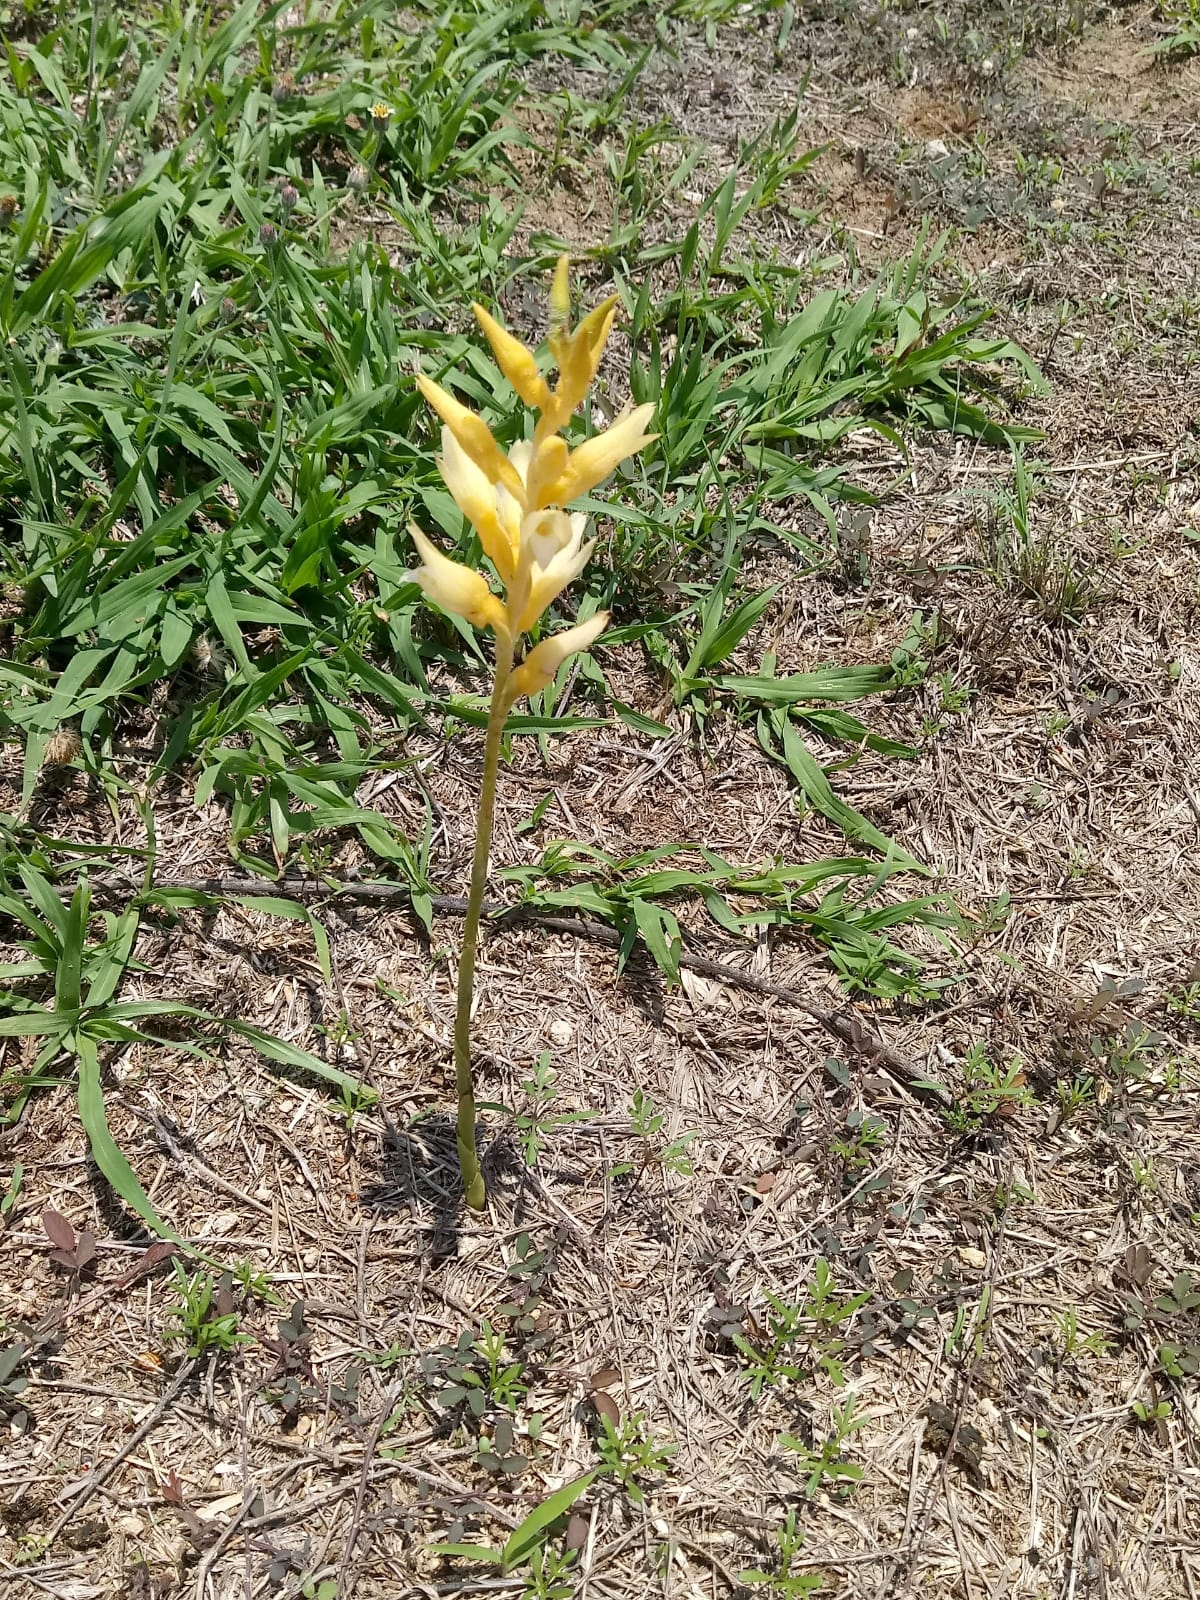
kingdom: Plantae
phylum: Tracheophyta
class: Liliopsida
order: Asparagales
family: Orchidaceae
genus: Sacoila
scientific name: Sacoila lanceolata
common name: Leafless beaked ladiestresses
